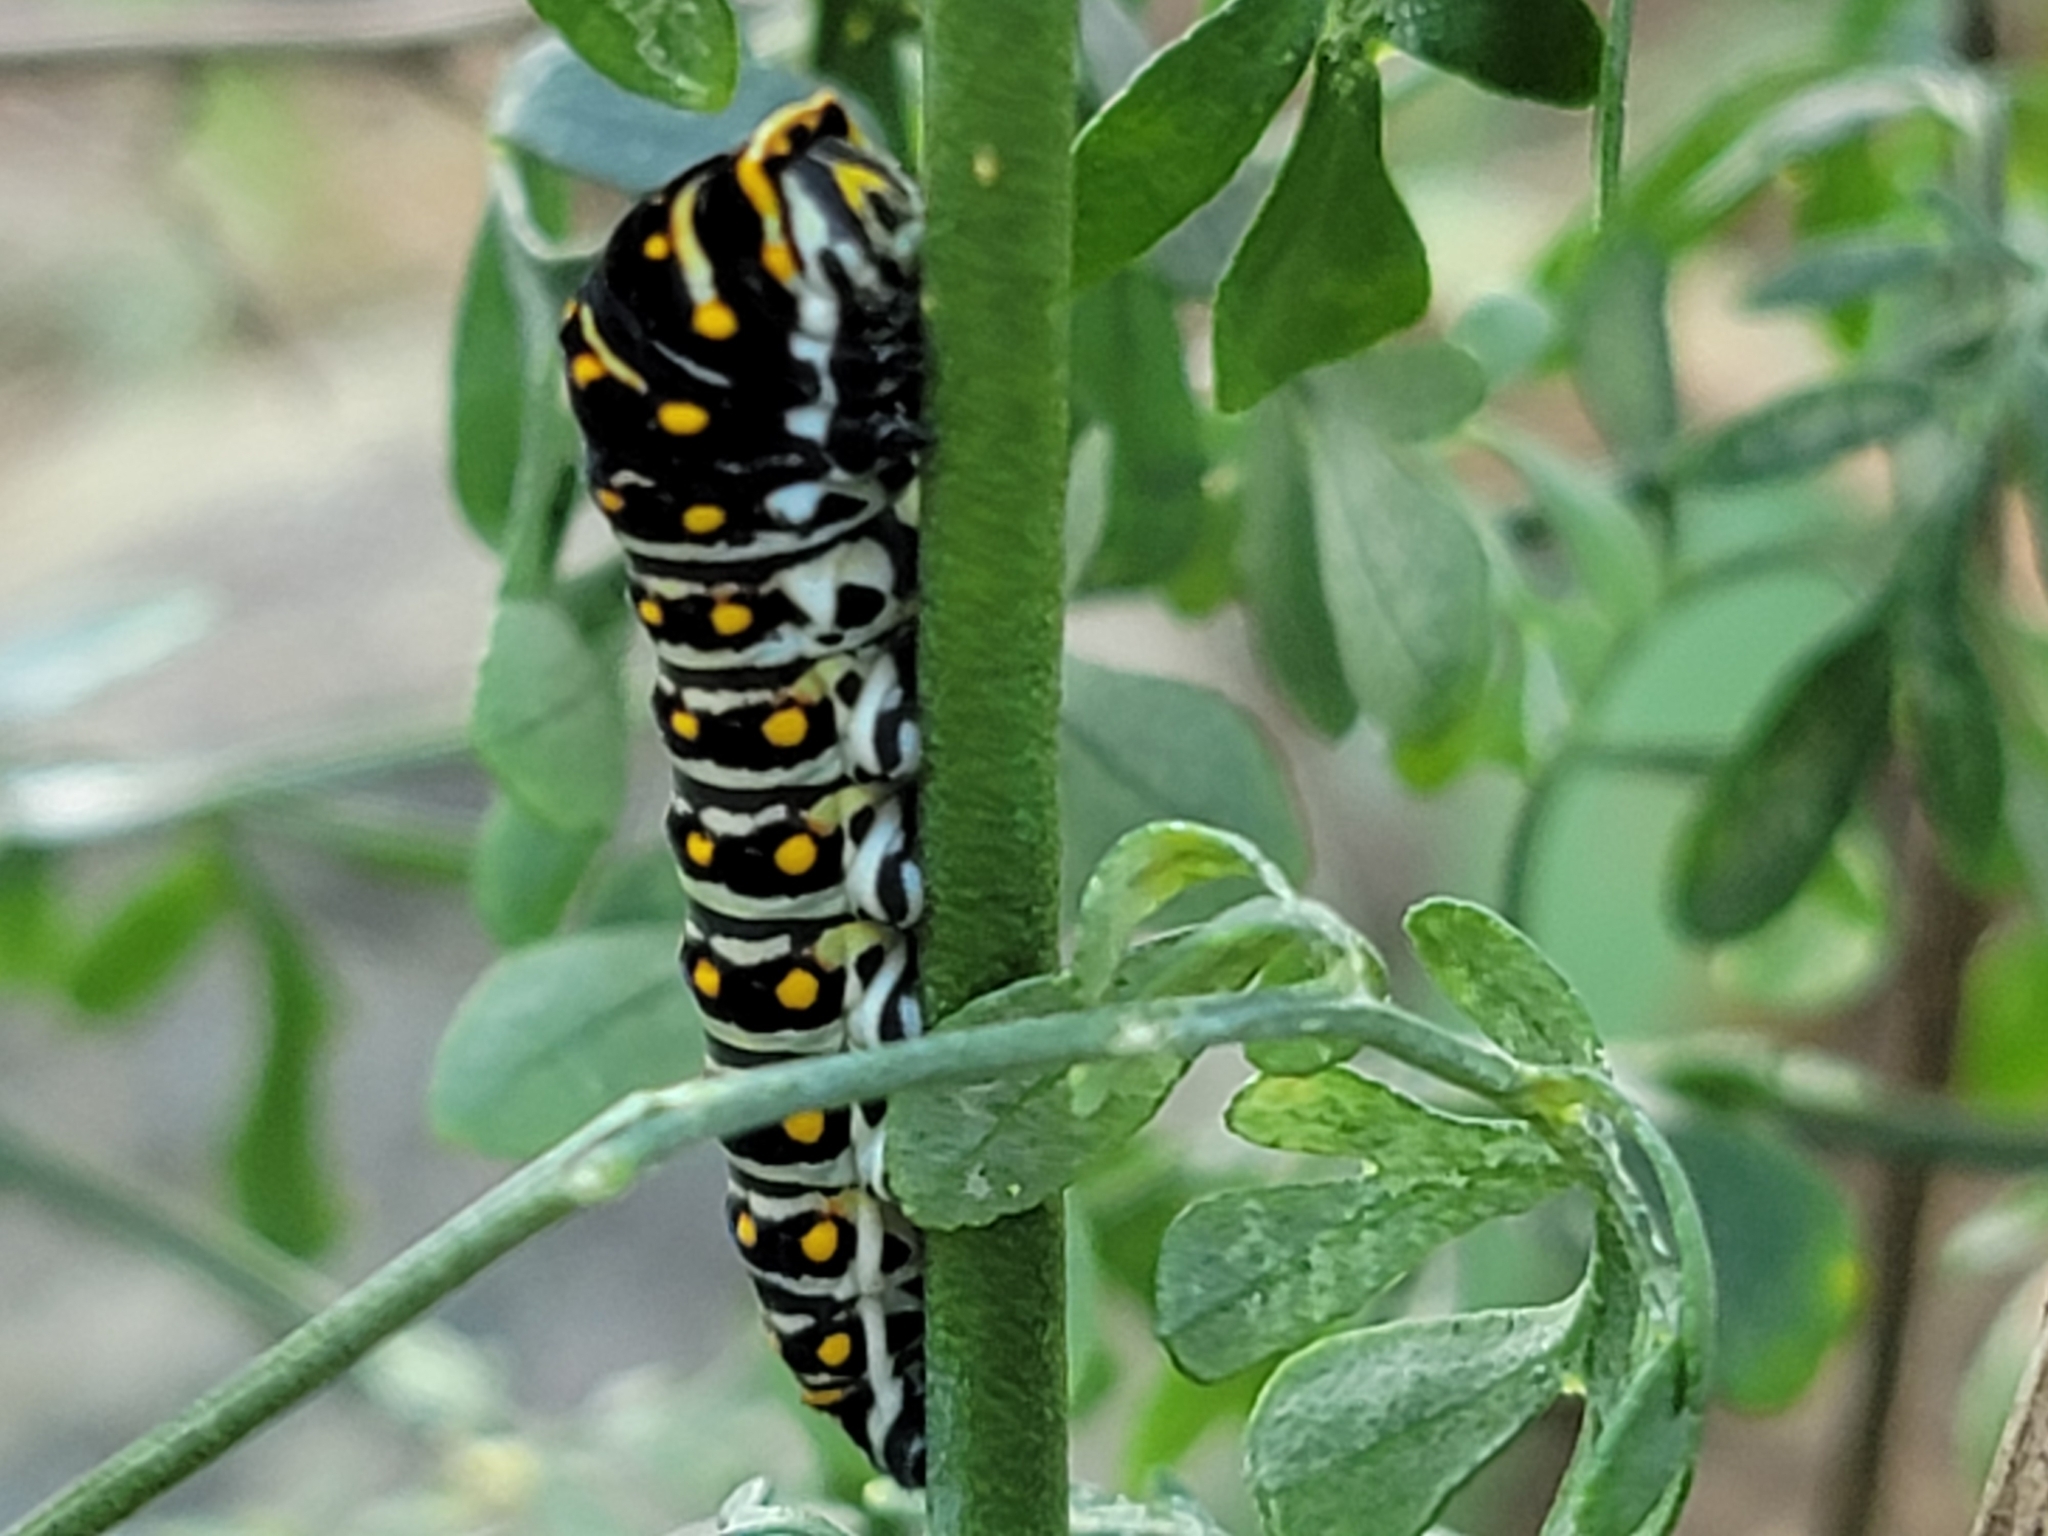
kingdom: Animalia
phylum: Arthropoda
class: Insecta
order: Lepidoptera
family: Papilionidae
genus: Papilio
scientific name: Papilio polyxenes
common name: Black swallowtail
